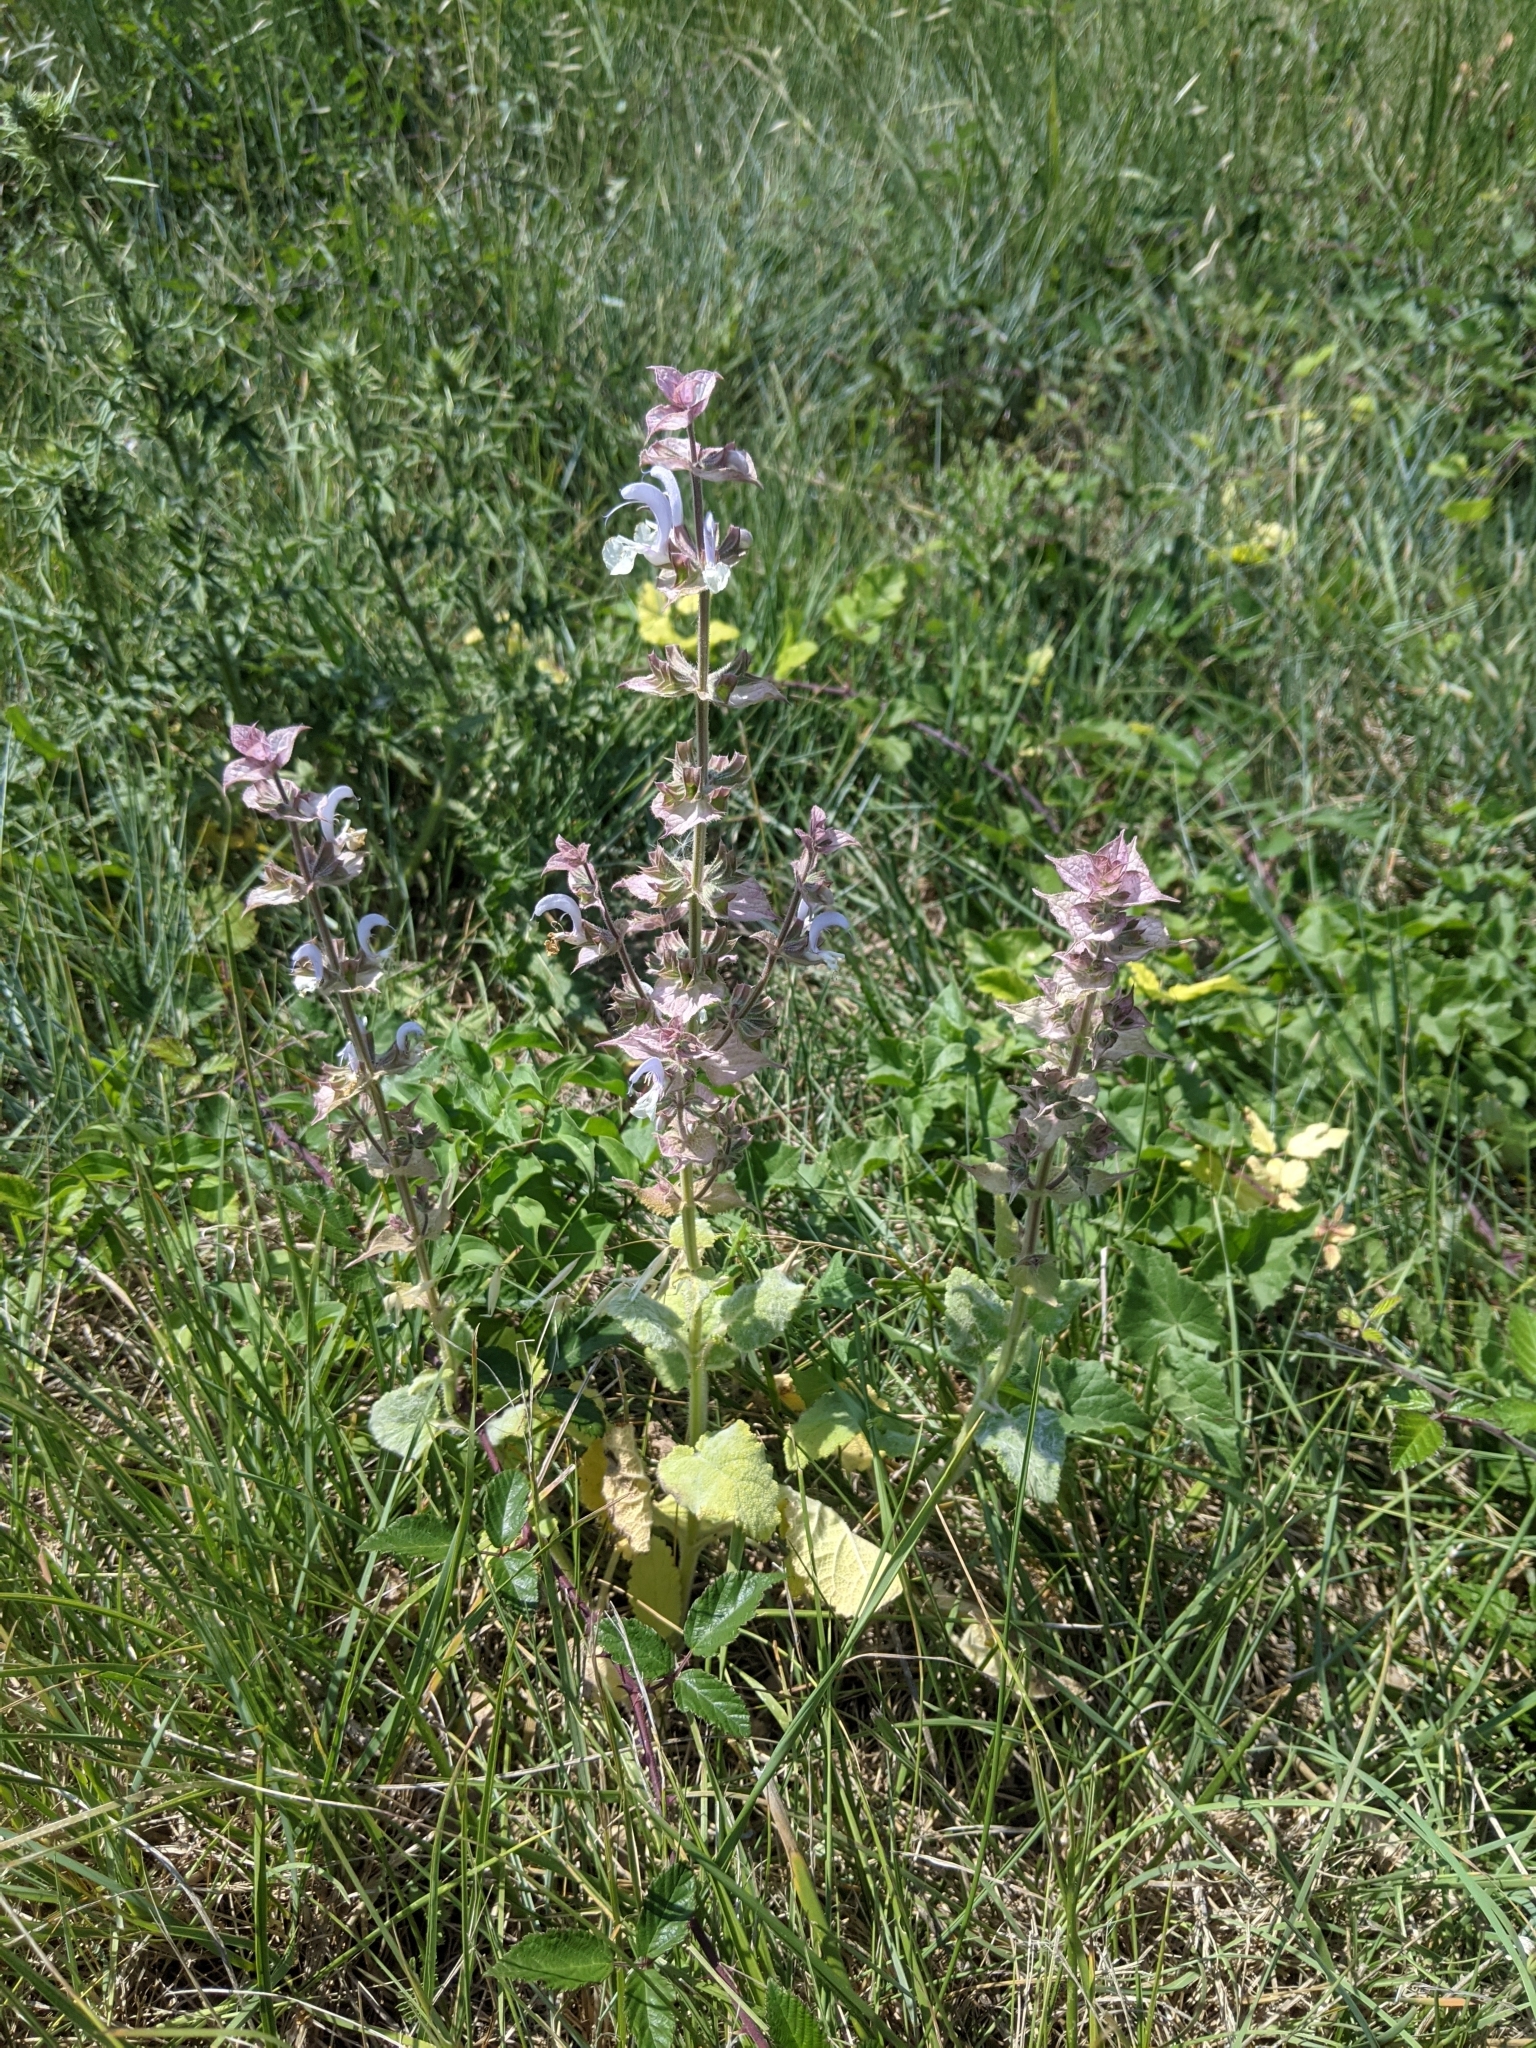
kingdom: Plantae
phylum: Tracheophyta
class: Magnoliopsida
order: Lamiales
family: Lamiaceae
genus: Salvia
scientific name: Salvia sclarea
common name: Clary
